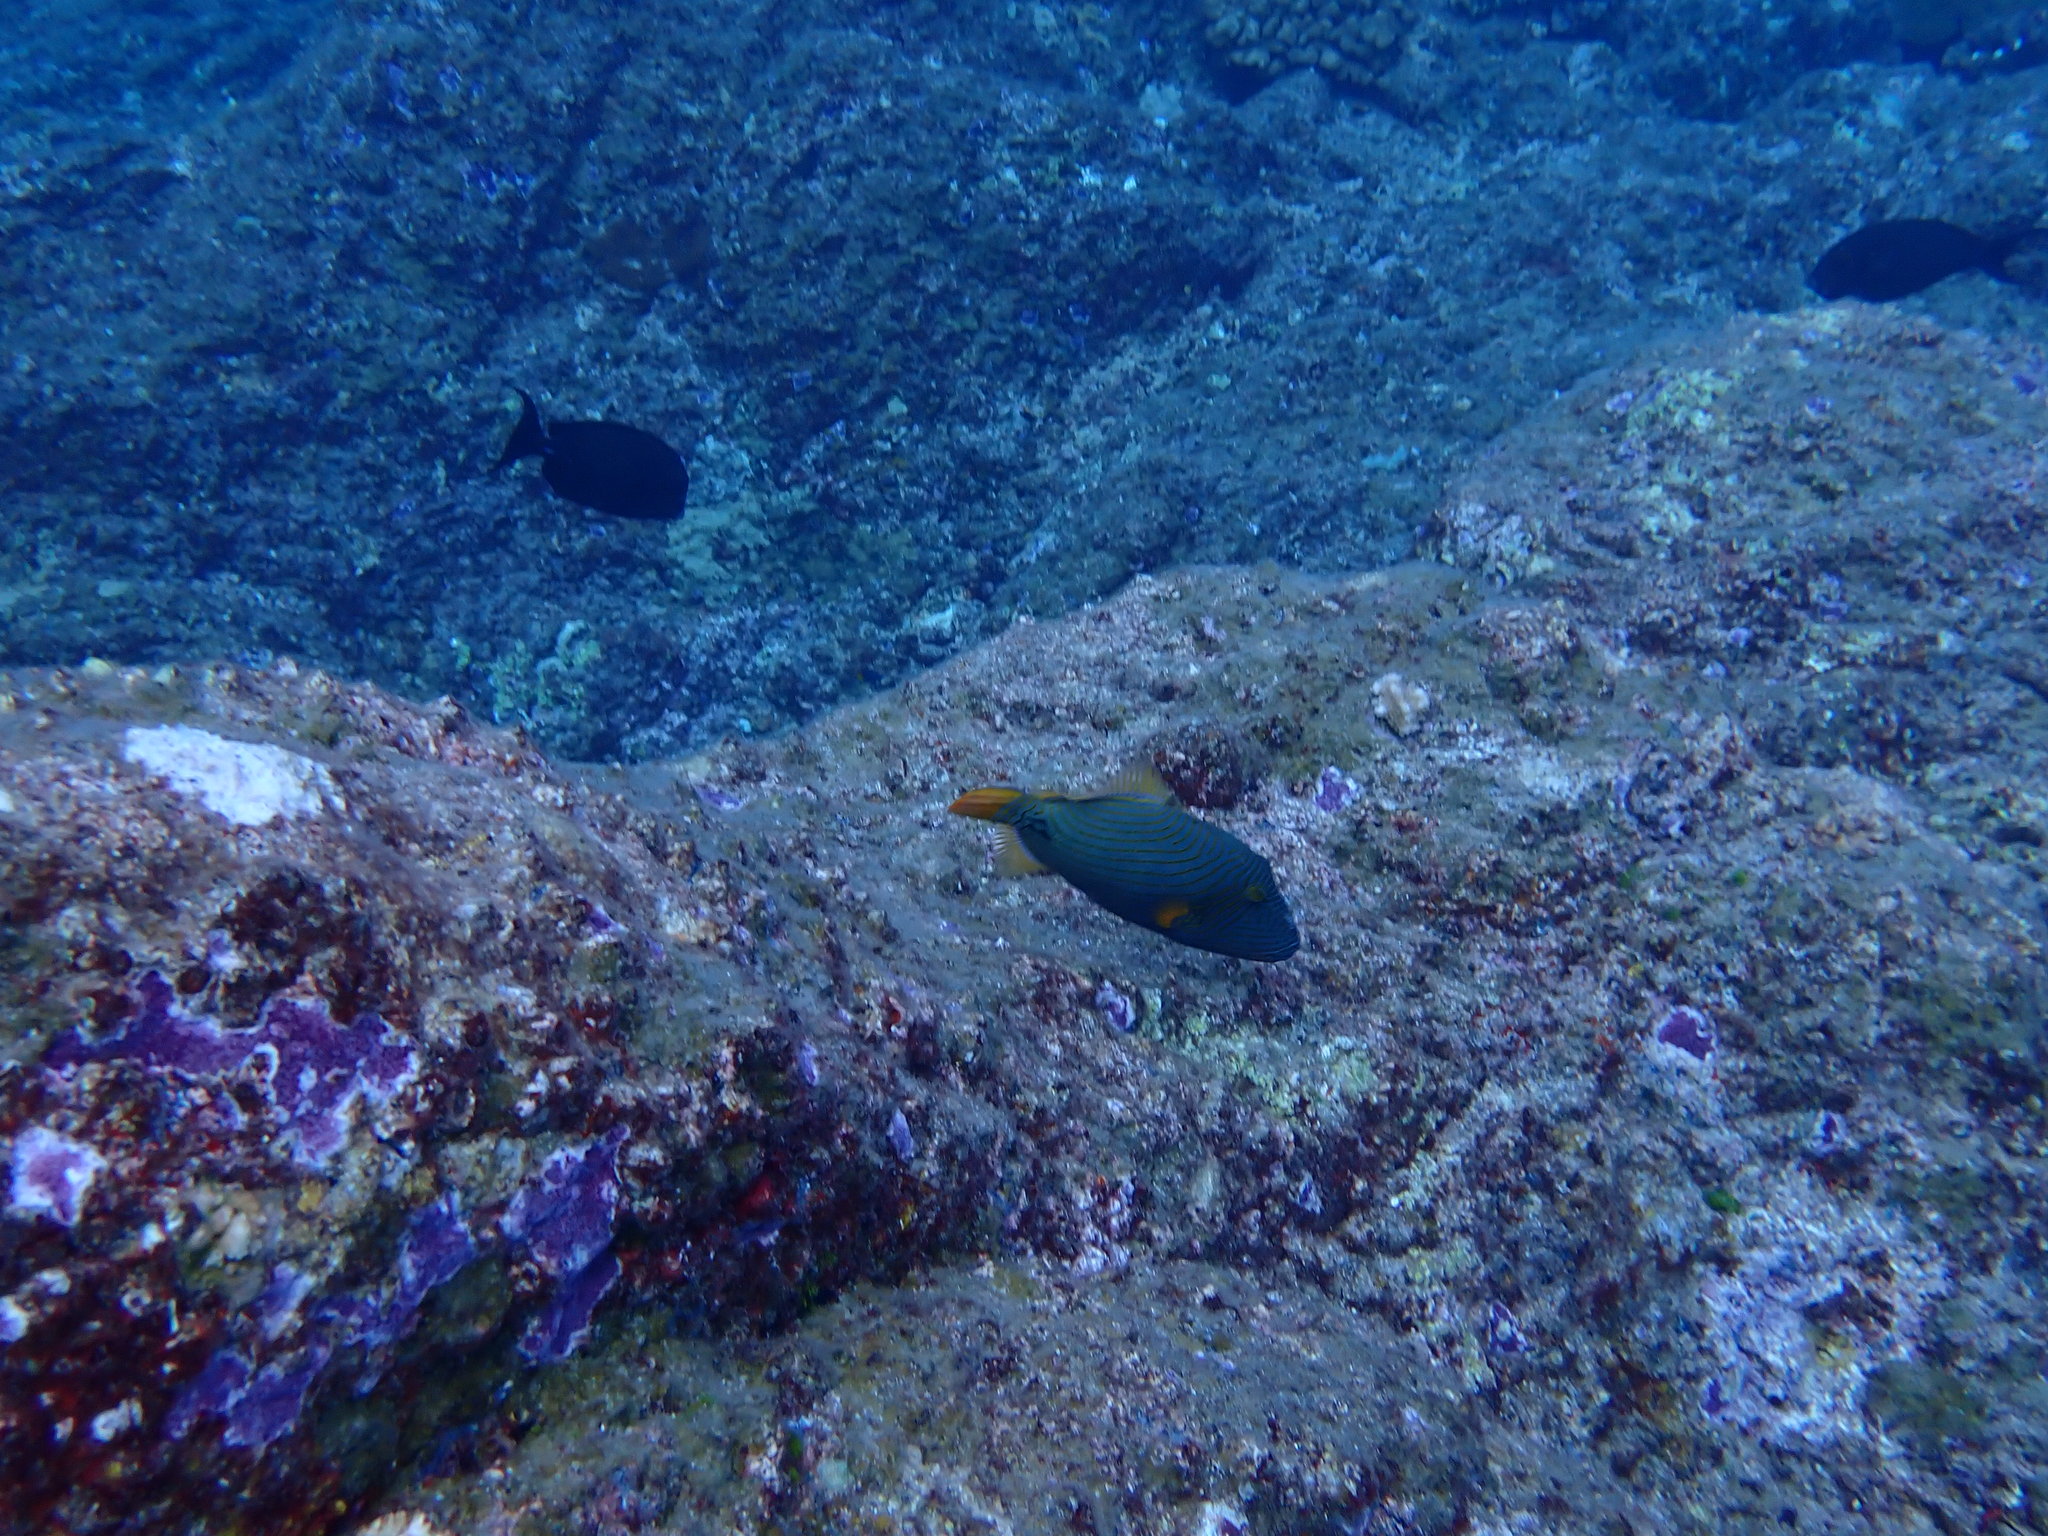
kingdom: Animalia
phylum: Chordata
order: Tetraodontiformes
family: Balistidae
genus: Balistapus
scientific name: Balistapus undulatus
